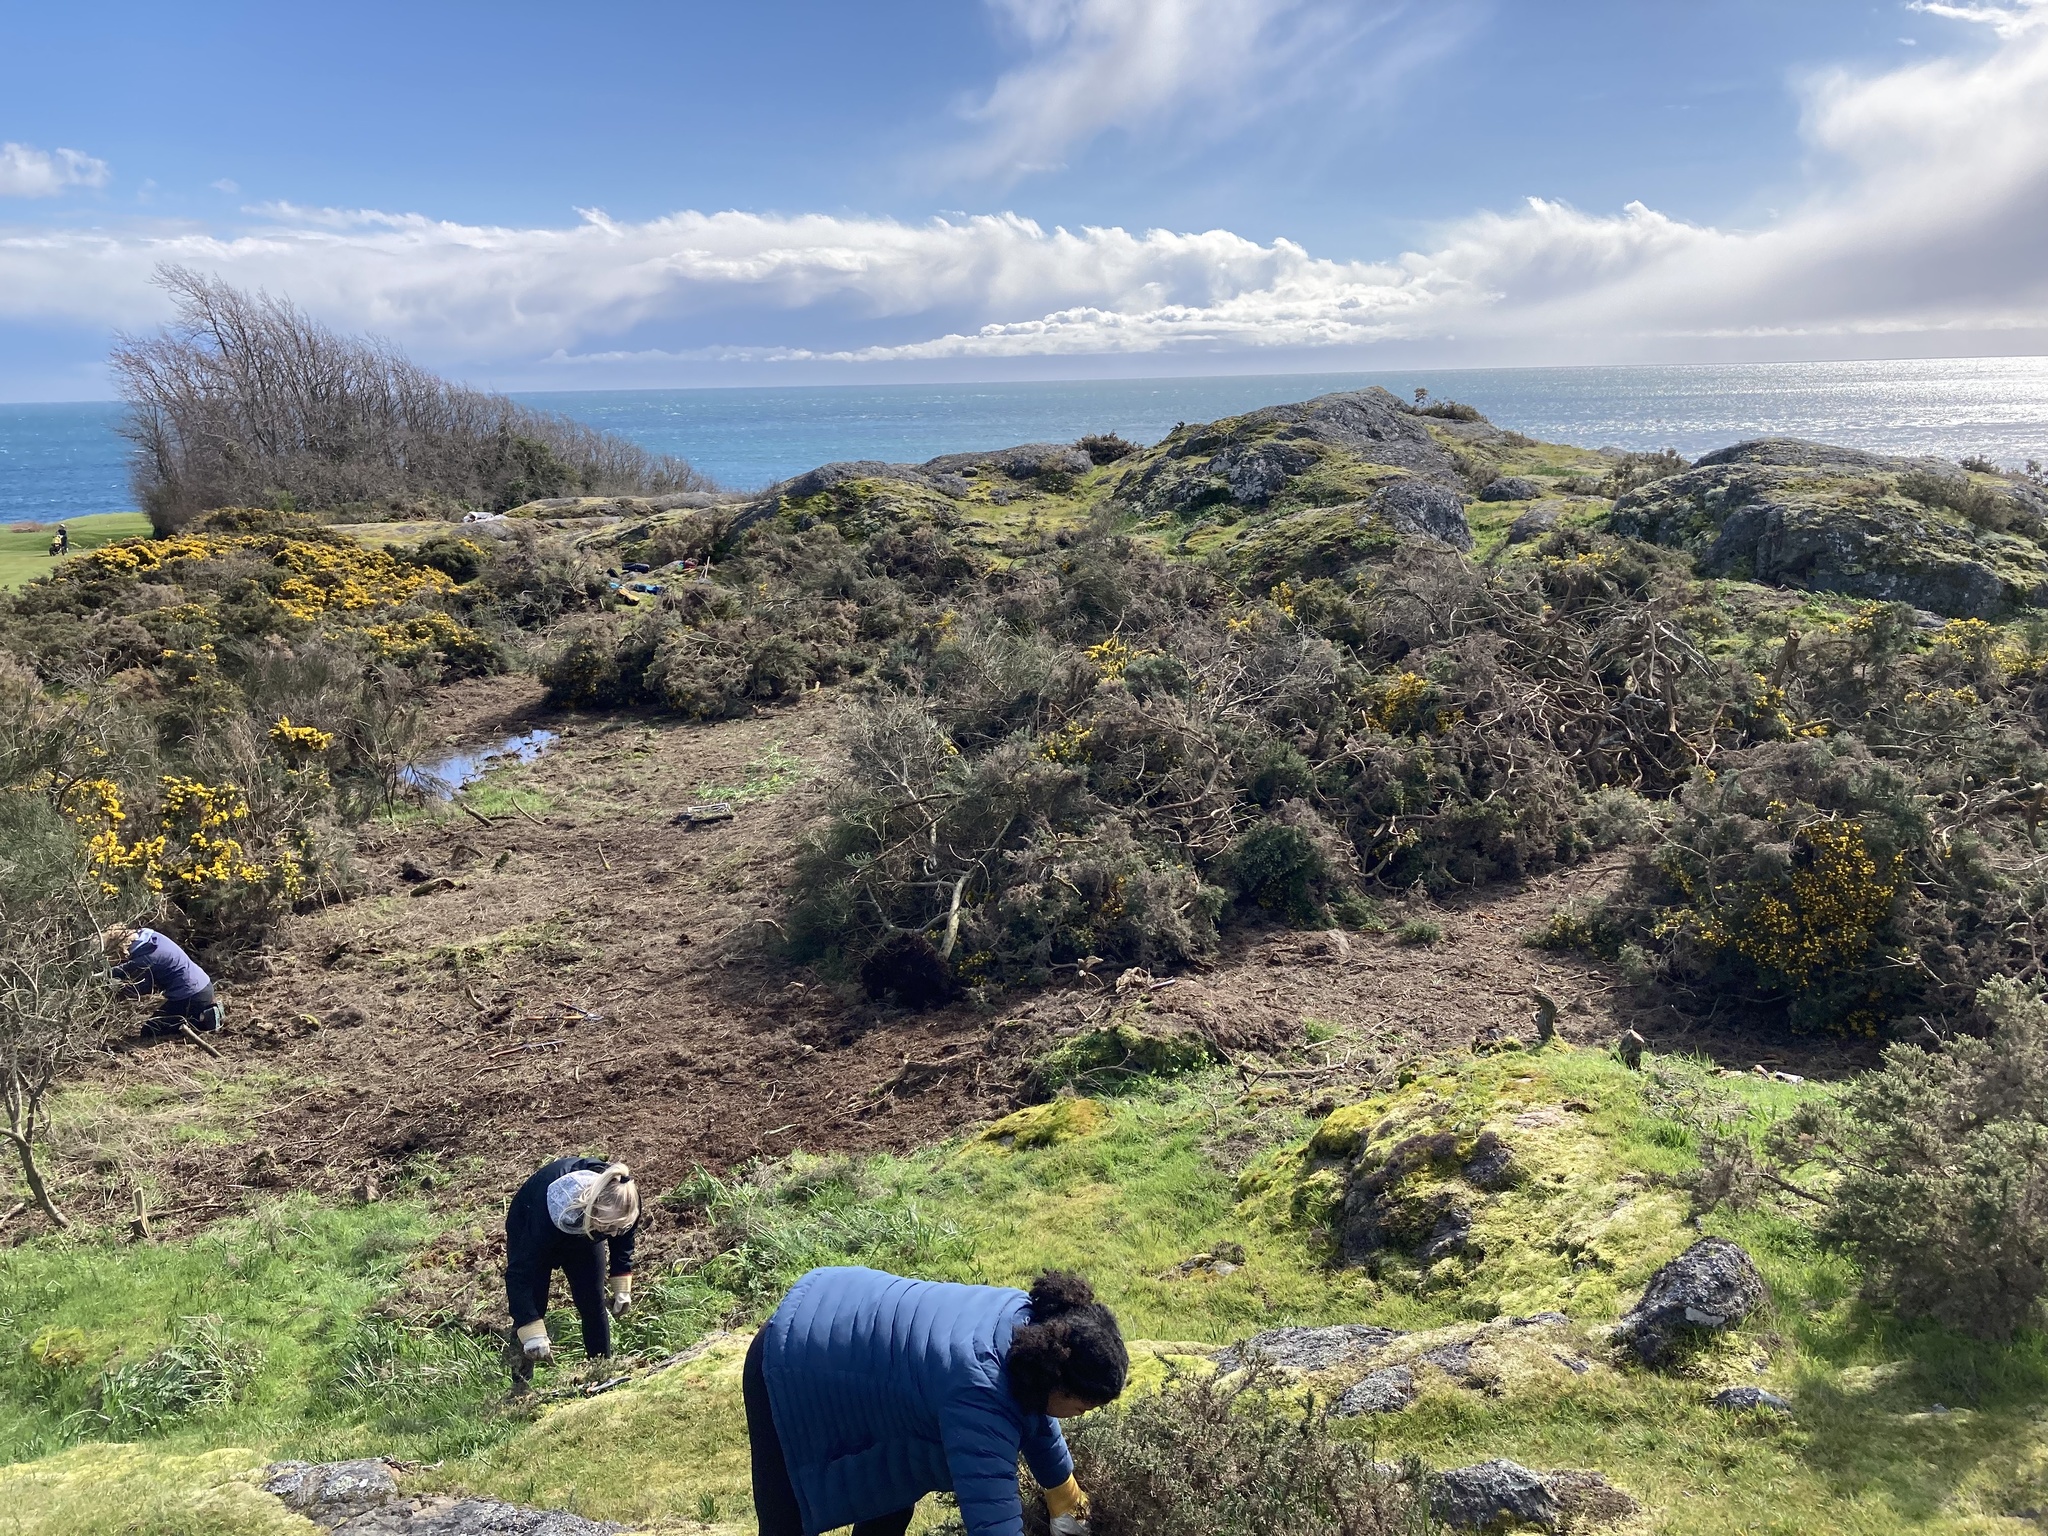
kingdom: Plantae
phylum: Tracheophyta
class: Magnoliopsida
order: Fabales
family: Fabaceae
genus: Ulex
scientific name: Ulex europaeus
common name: Common gorse
